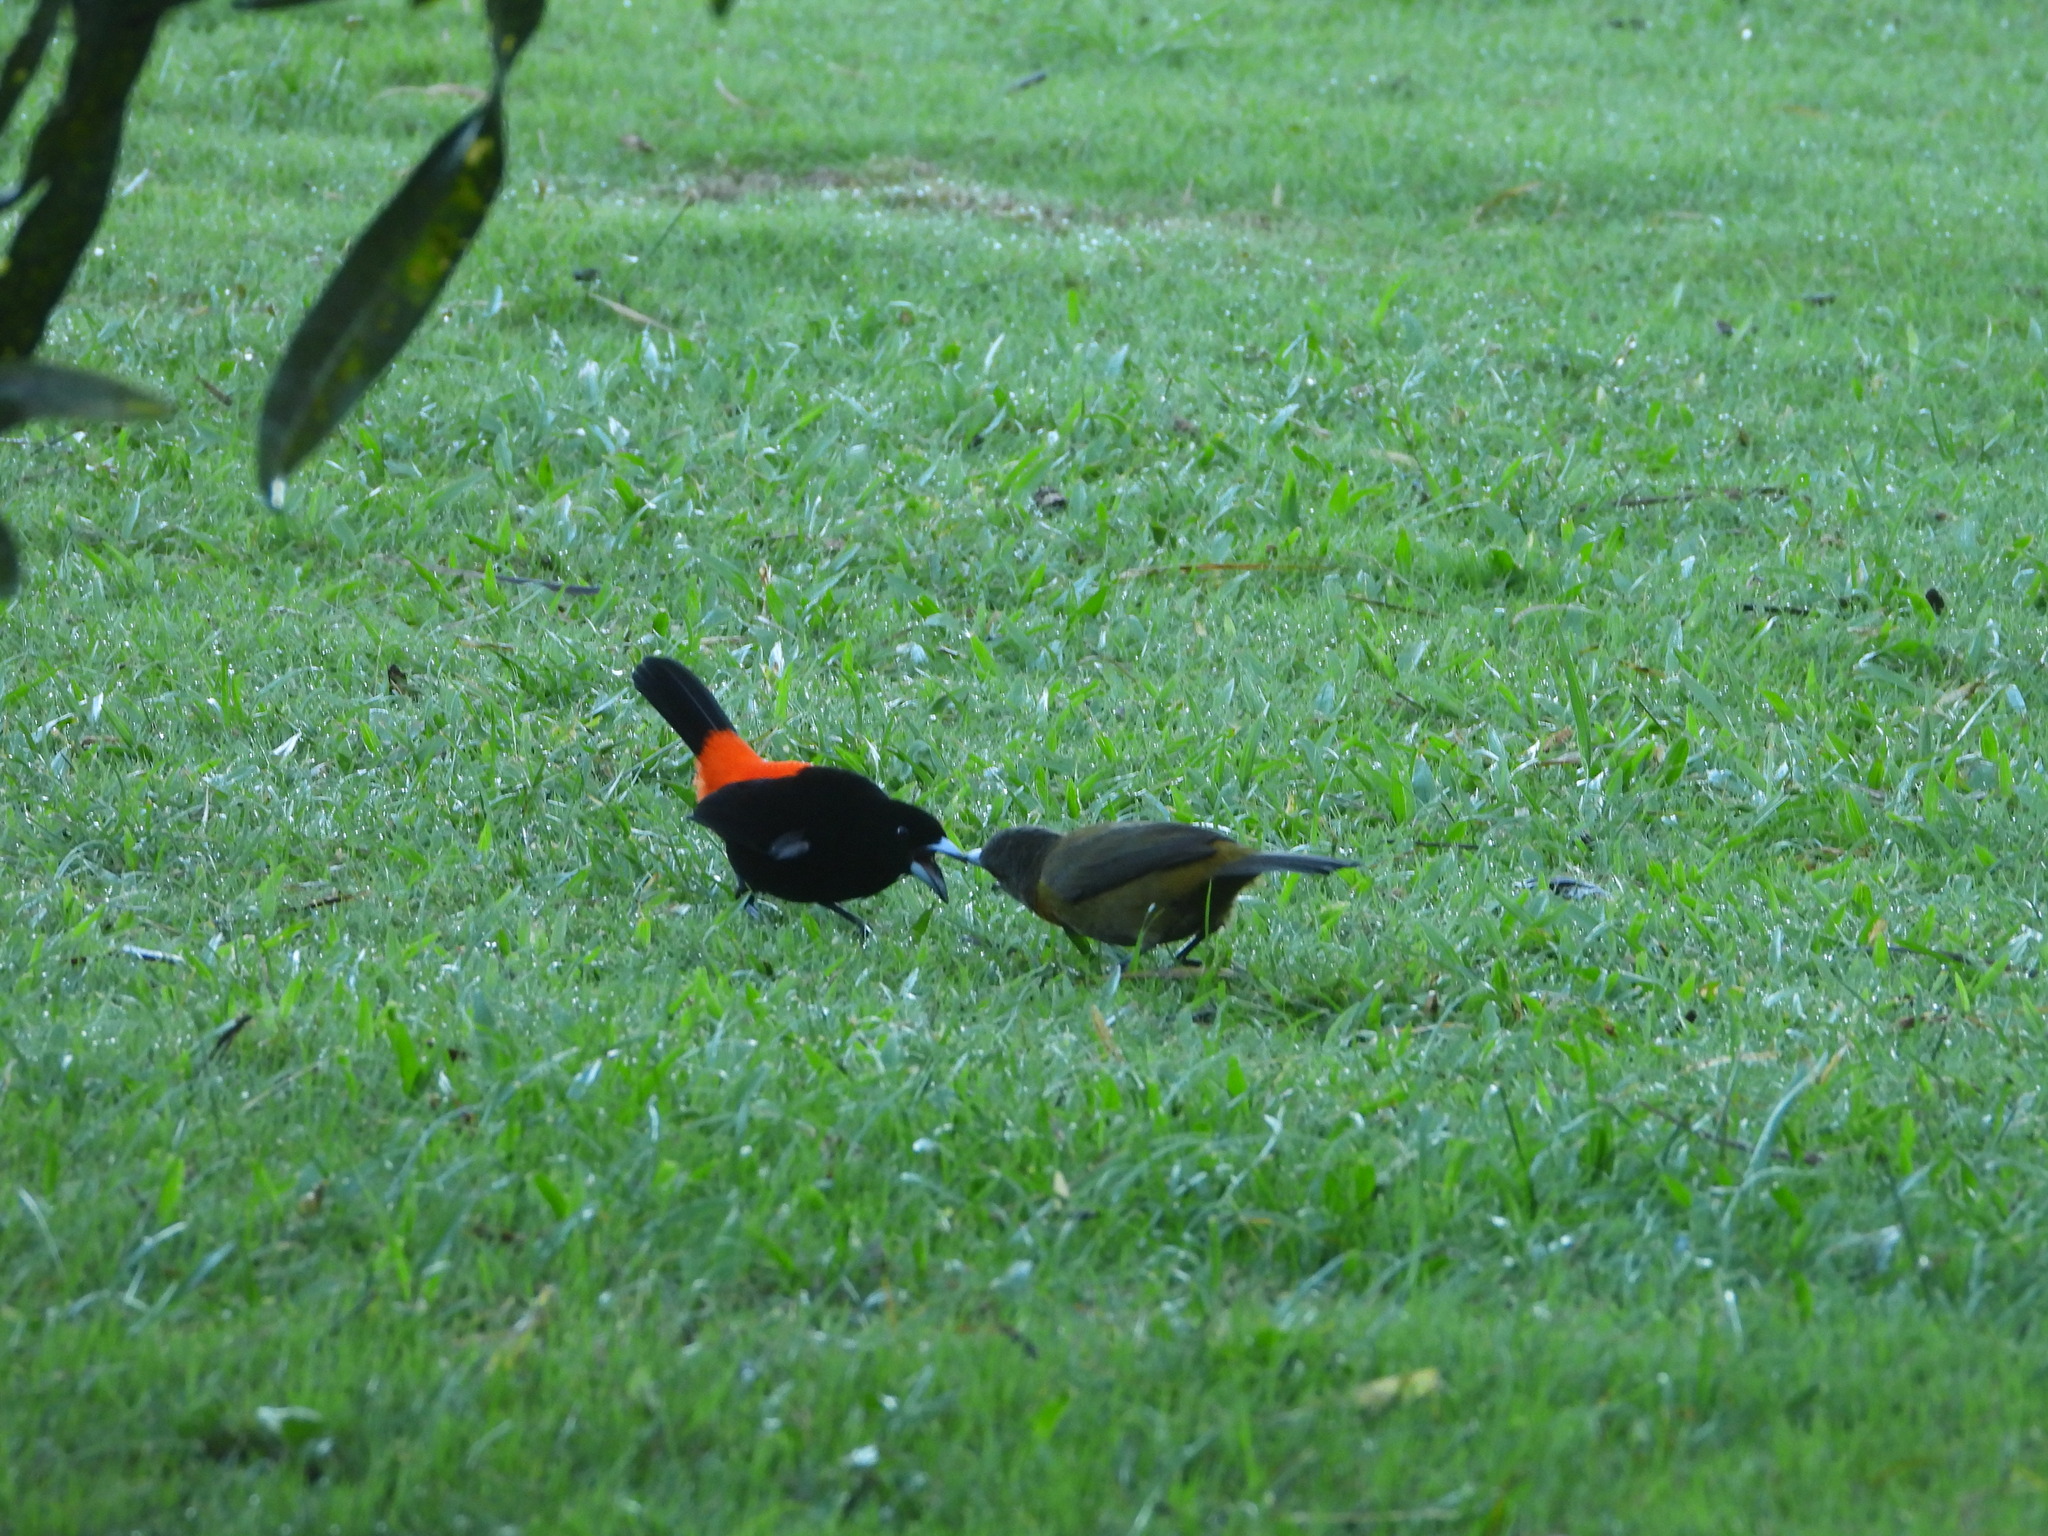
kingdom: Animalia
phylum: Chordata
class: Aves
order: Passeriformes
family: Thraupidae
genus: Ramphocelus
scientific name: Ramphocelus passerinii
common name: Passerini's tanager
